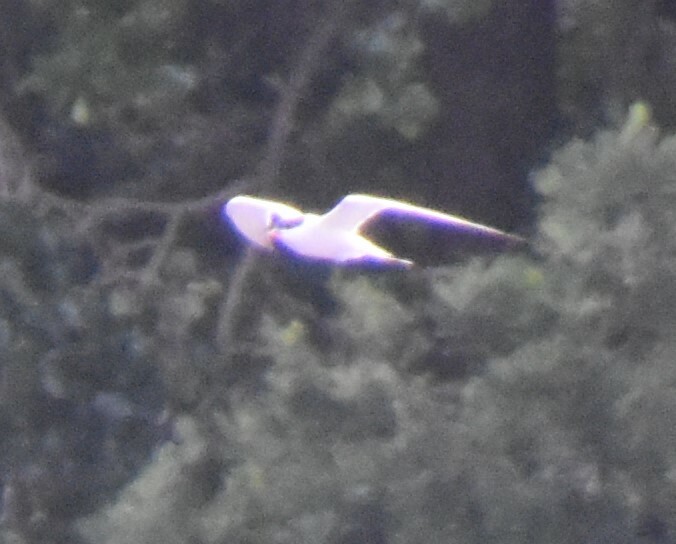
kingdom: Animalia
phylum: Chordata
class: Aves
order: Charadriiformes
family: Laridae
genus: Sterna
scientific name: Sterna hirundo
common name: Common tern
